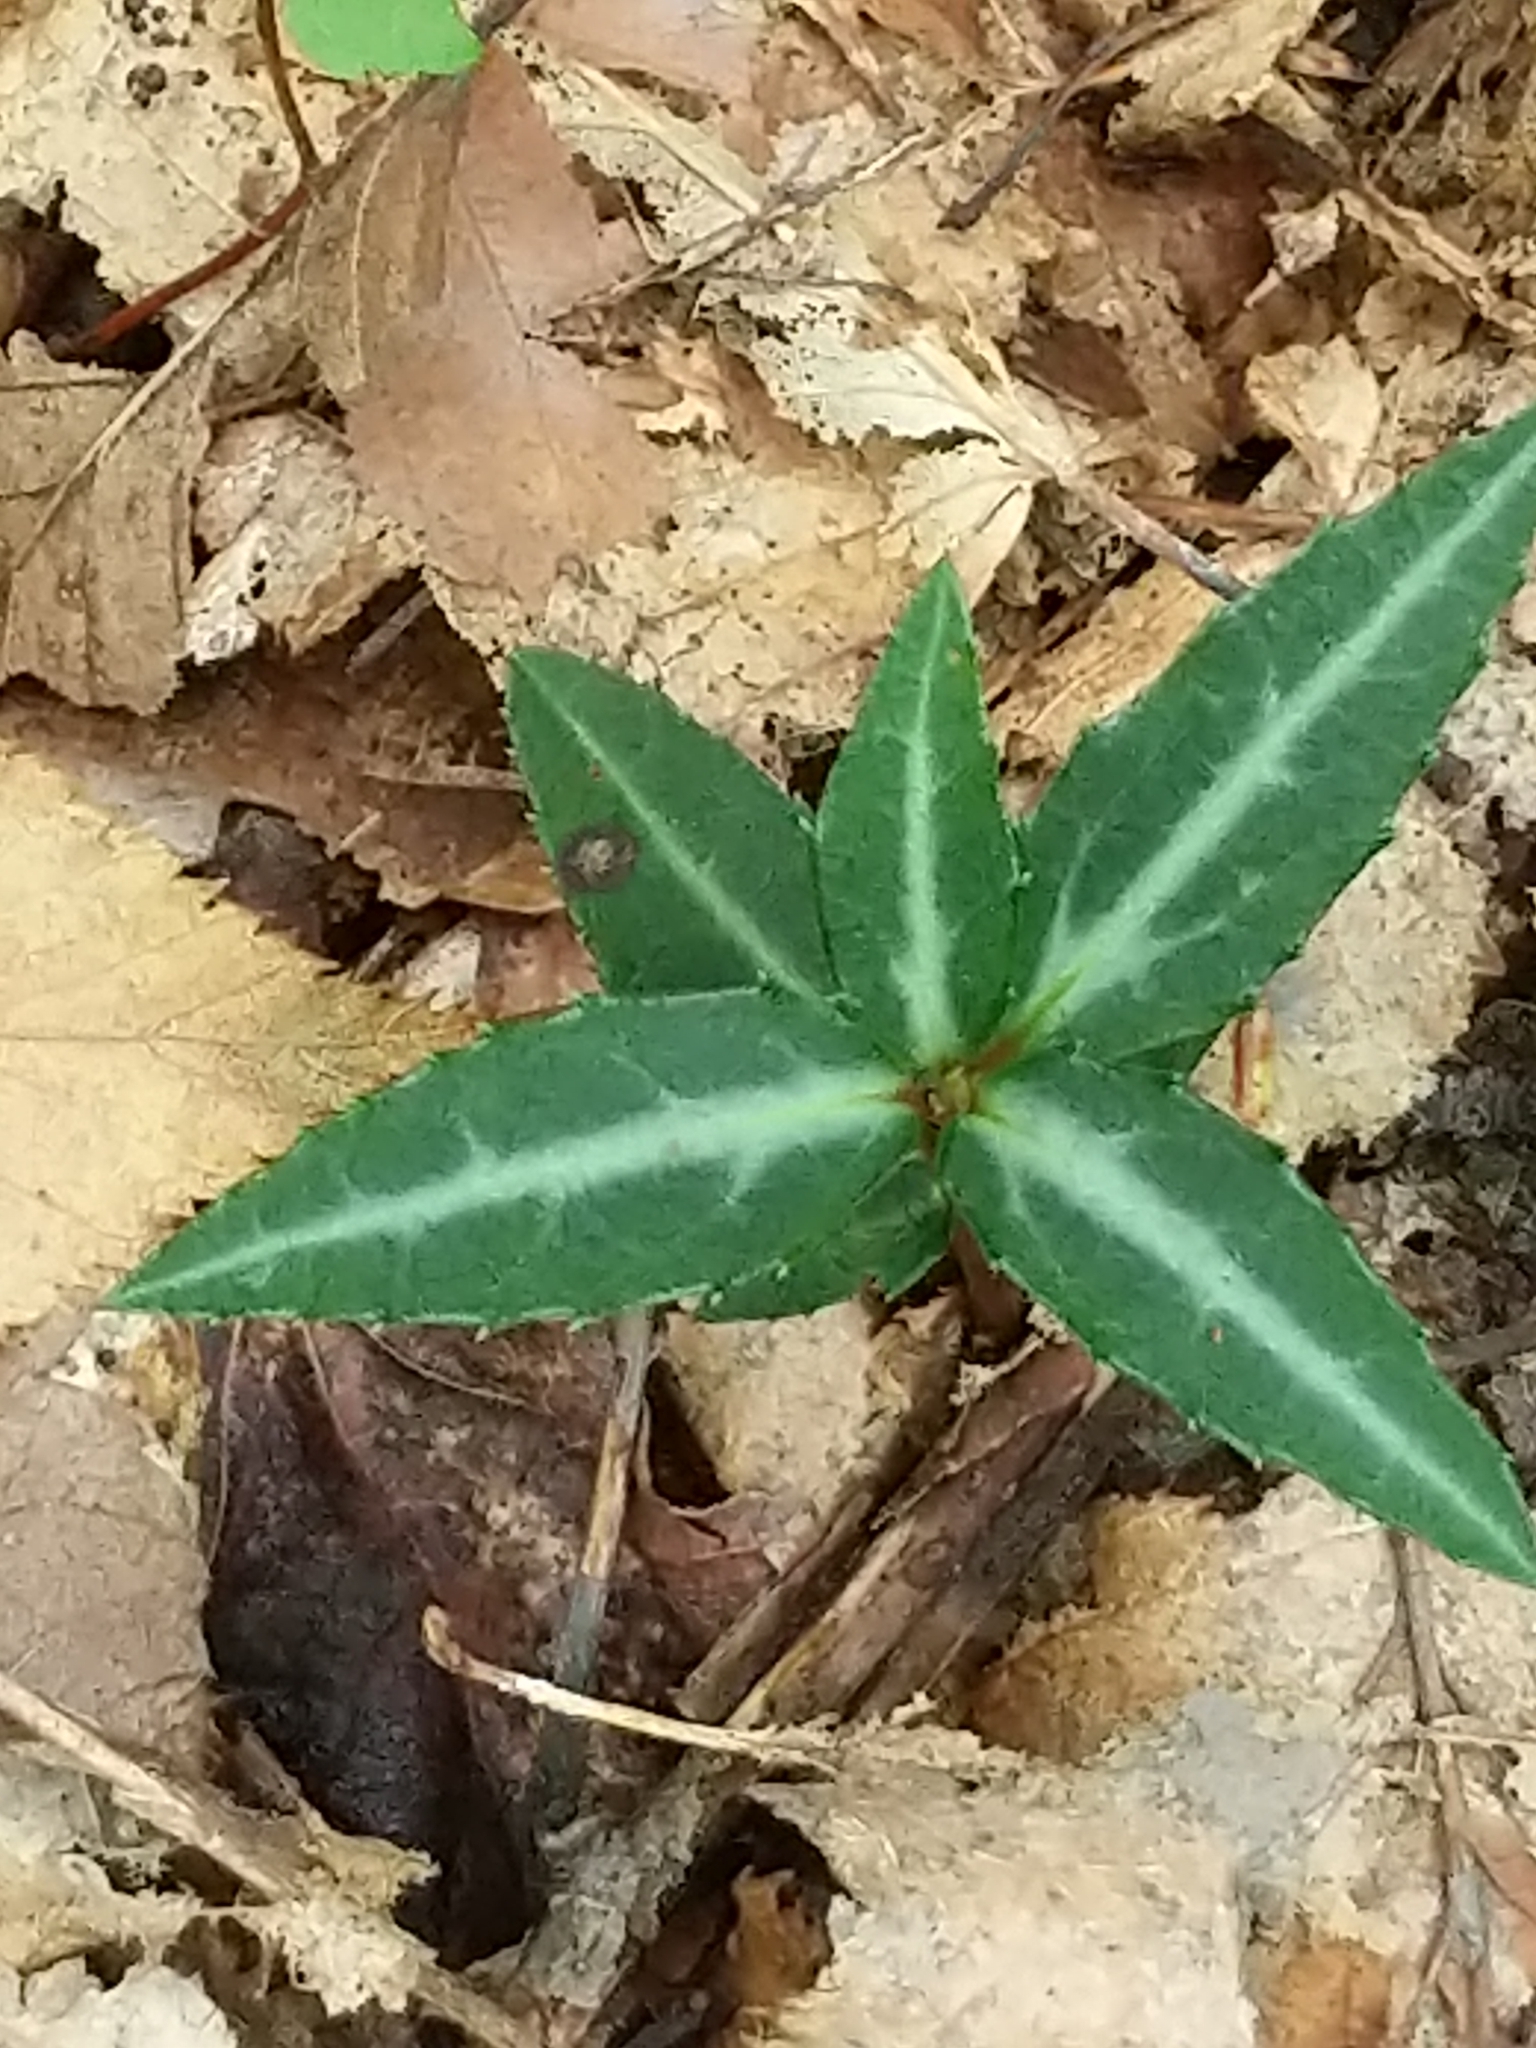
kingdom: Plantae
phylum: Tracheophyta
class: Magnoliopsida
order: Ericales
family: Ericaceae
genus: Chimaphila
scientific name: Chimaphila maculata
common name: Spotted pipsissewa
